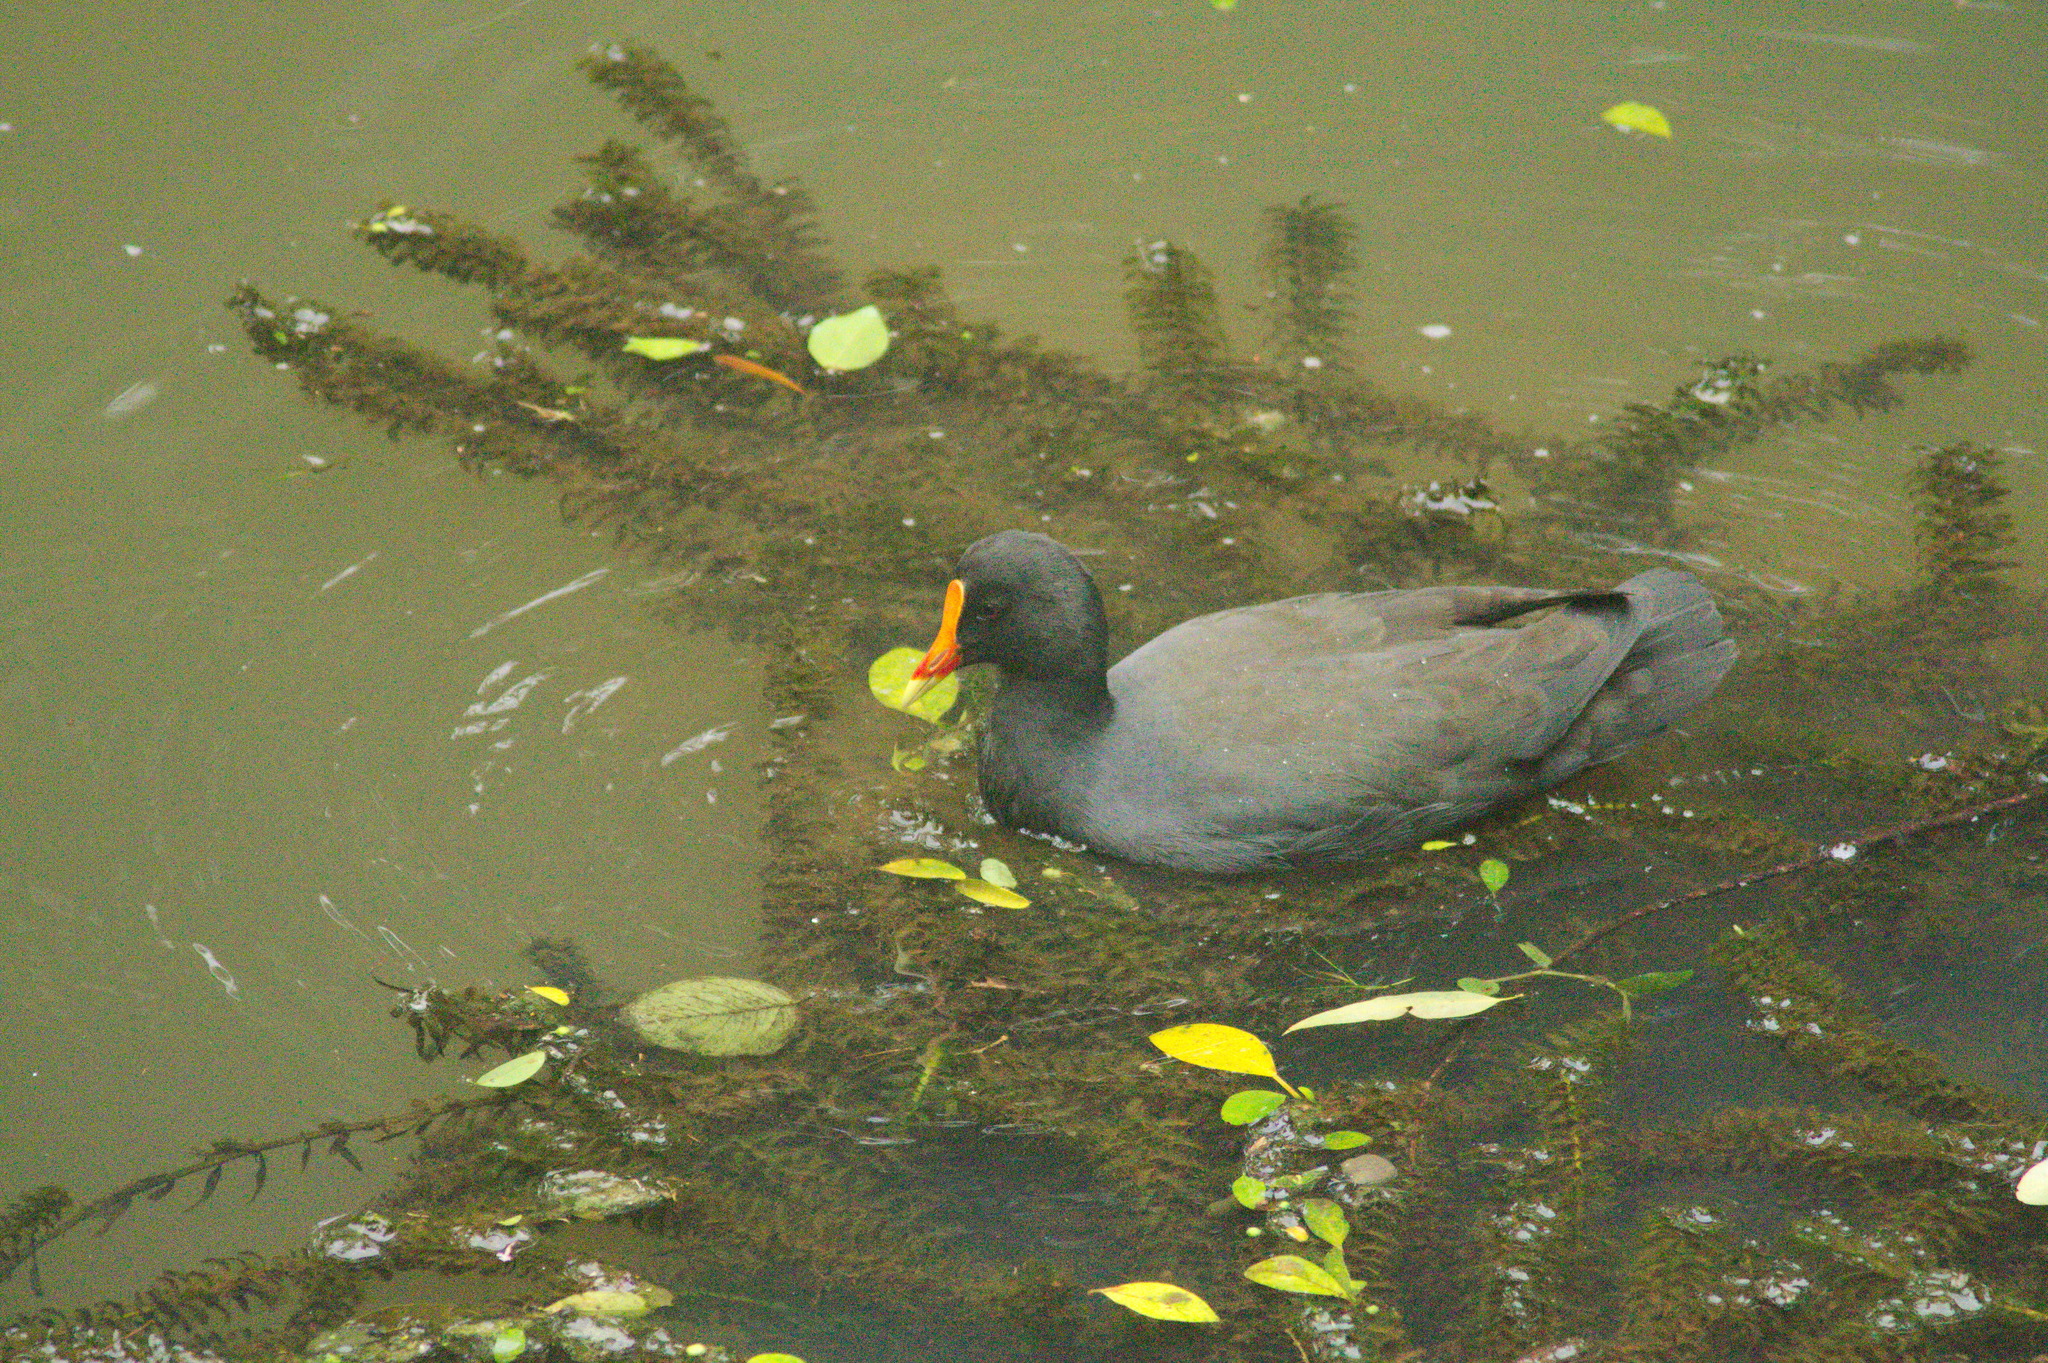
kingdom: Animalia
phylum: Chordata
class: Aves
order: Gruiformes
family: Rallidae
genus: Gallinula
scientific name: Gallinula tenebrosa
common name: Dusky moorhen
